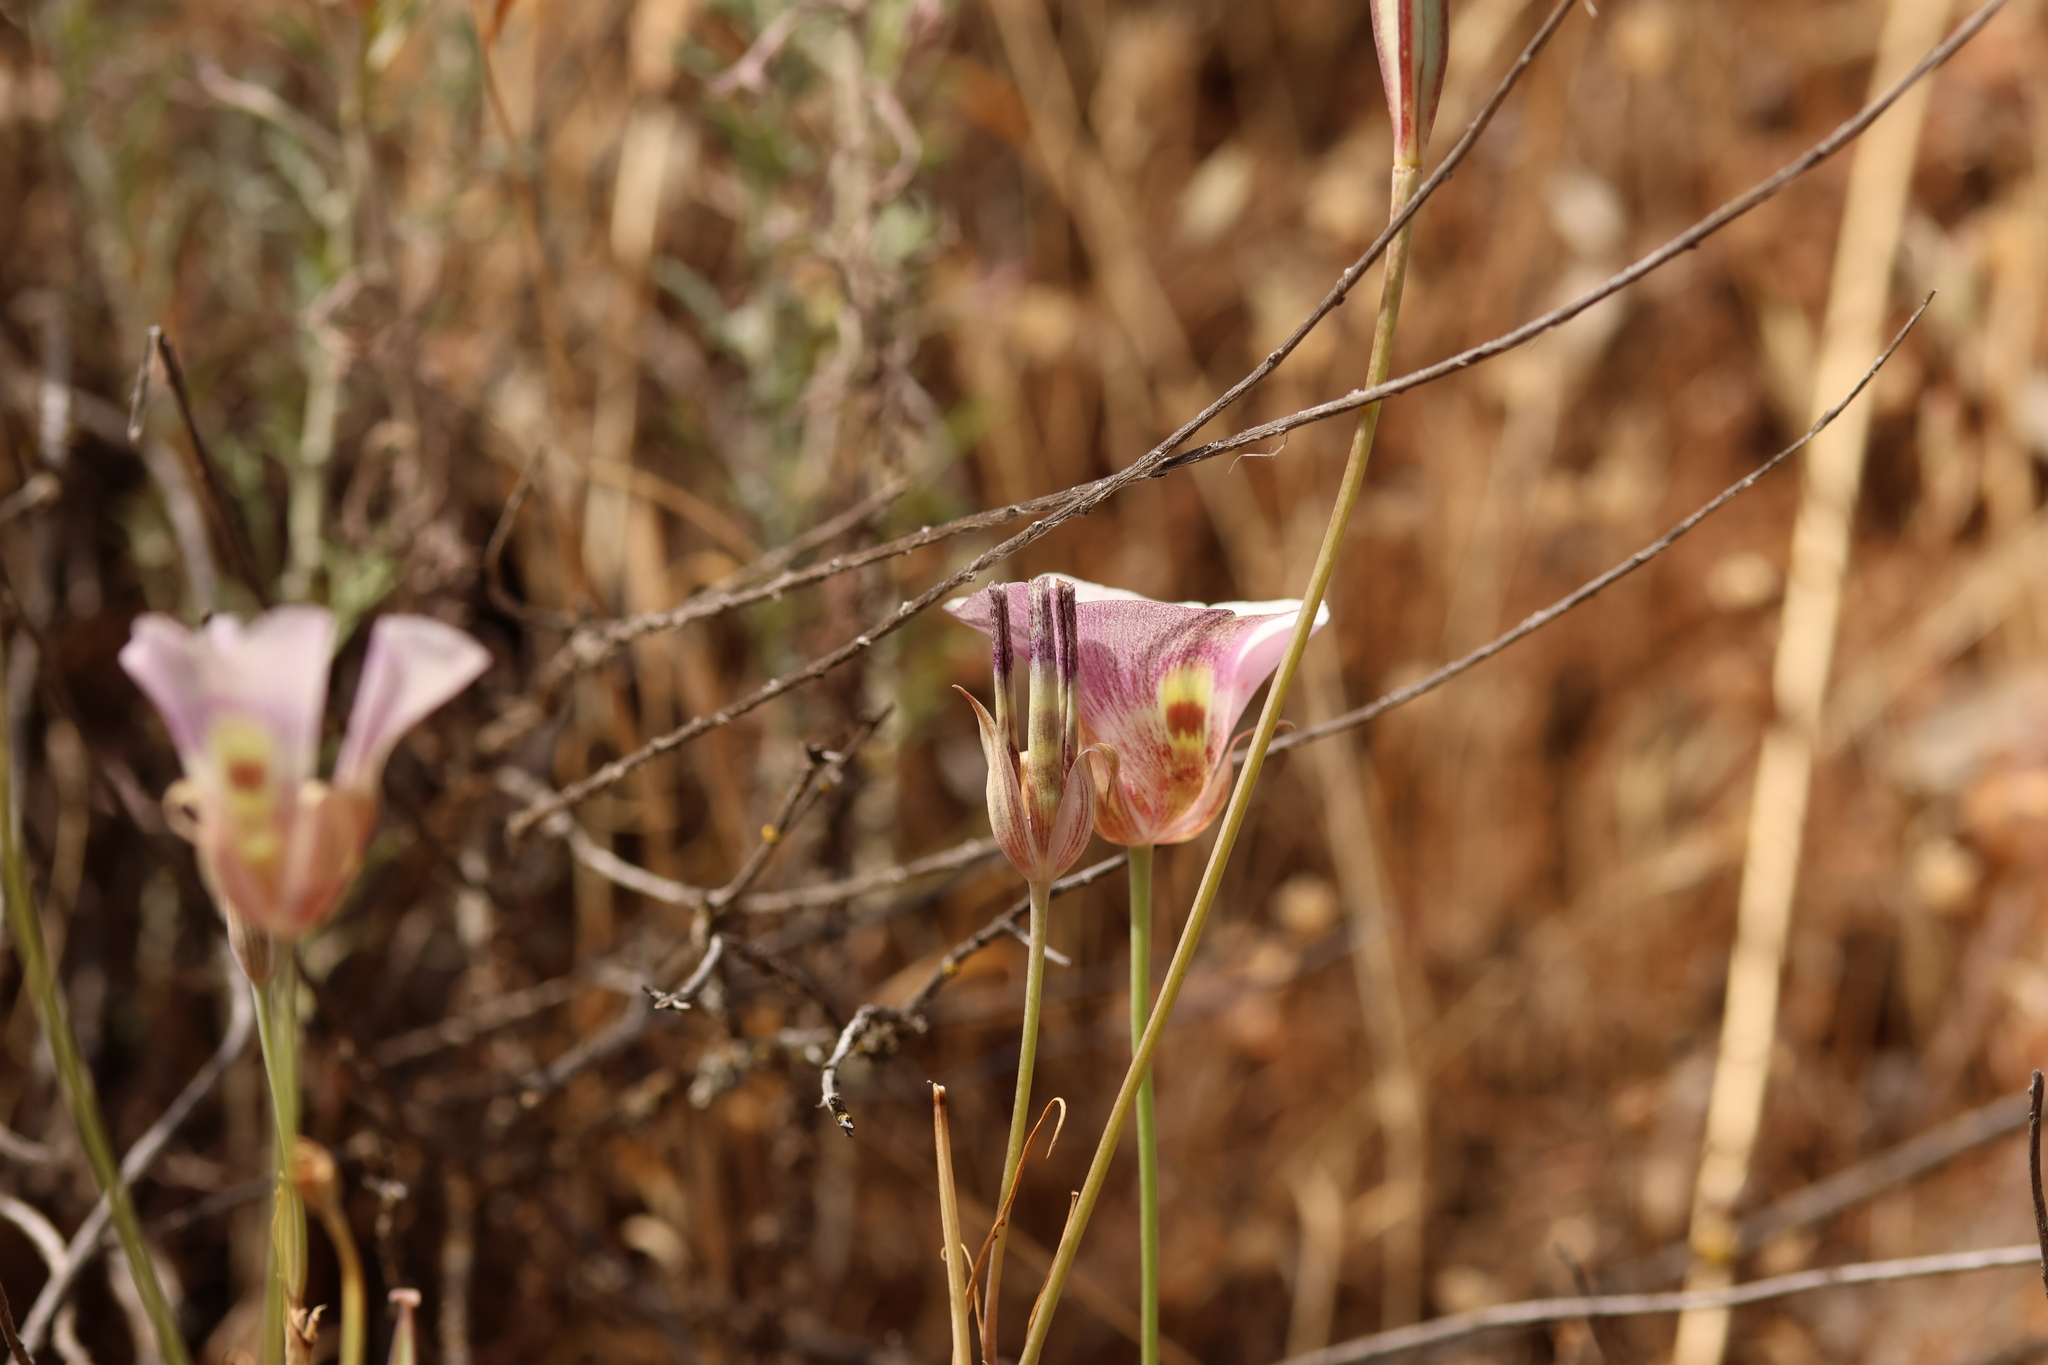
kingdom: Plantae
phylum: Tracheophyta
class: Liliopsida
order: Liliales
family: Liliaceae
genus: Calochortus
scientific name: Calochortus argillosus
